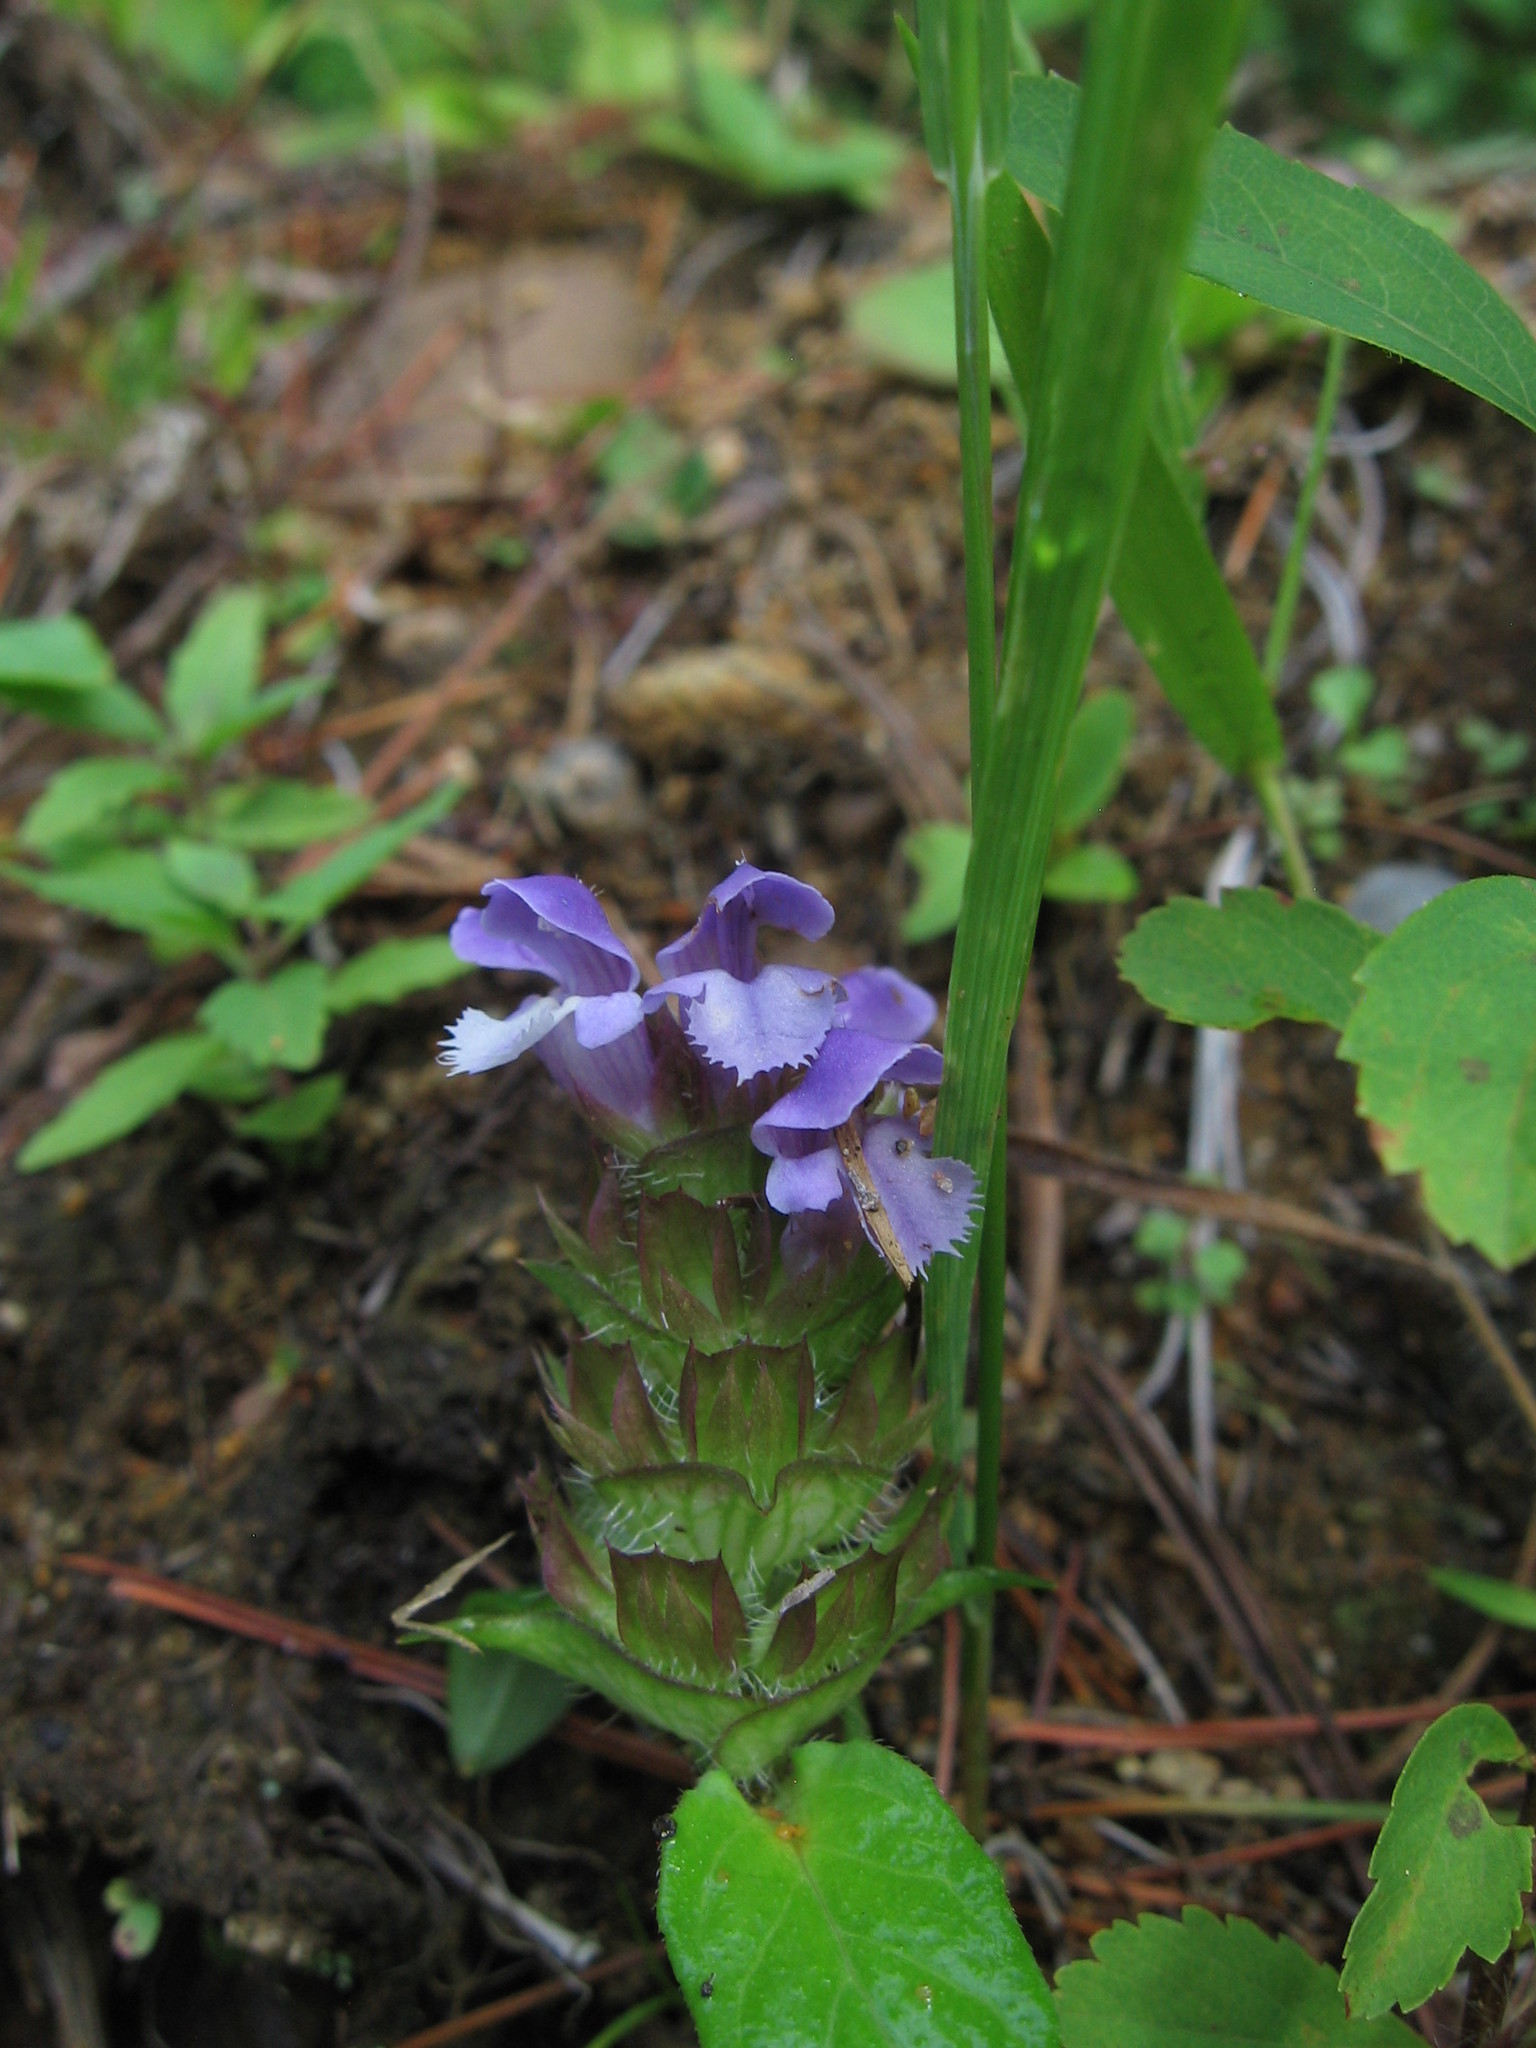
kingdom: Plantae
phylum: Tracheophyta
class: Magnoliopsida
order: Lamiales
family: Lamiaceae
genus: Prunella
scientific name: Prunella vulgaris
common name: Heal-all
